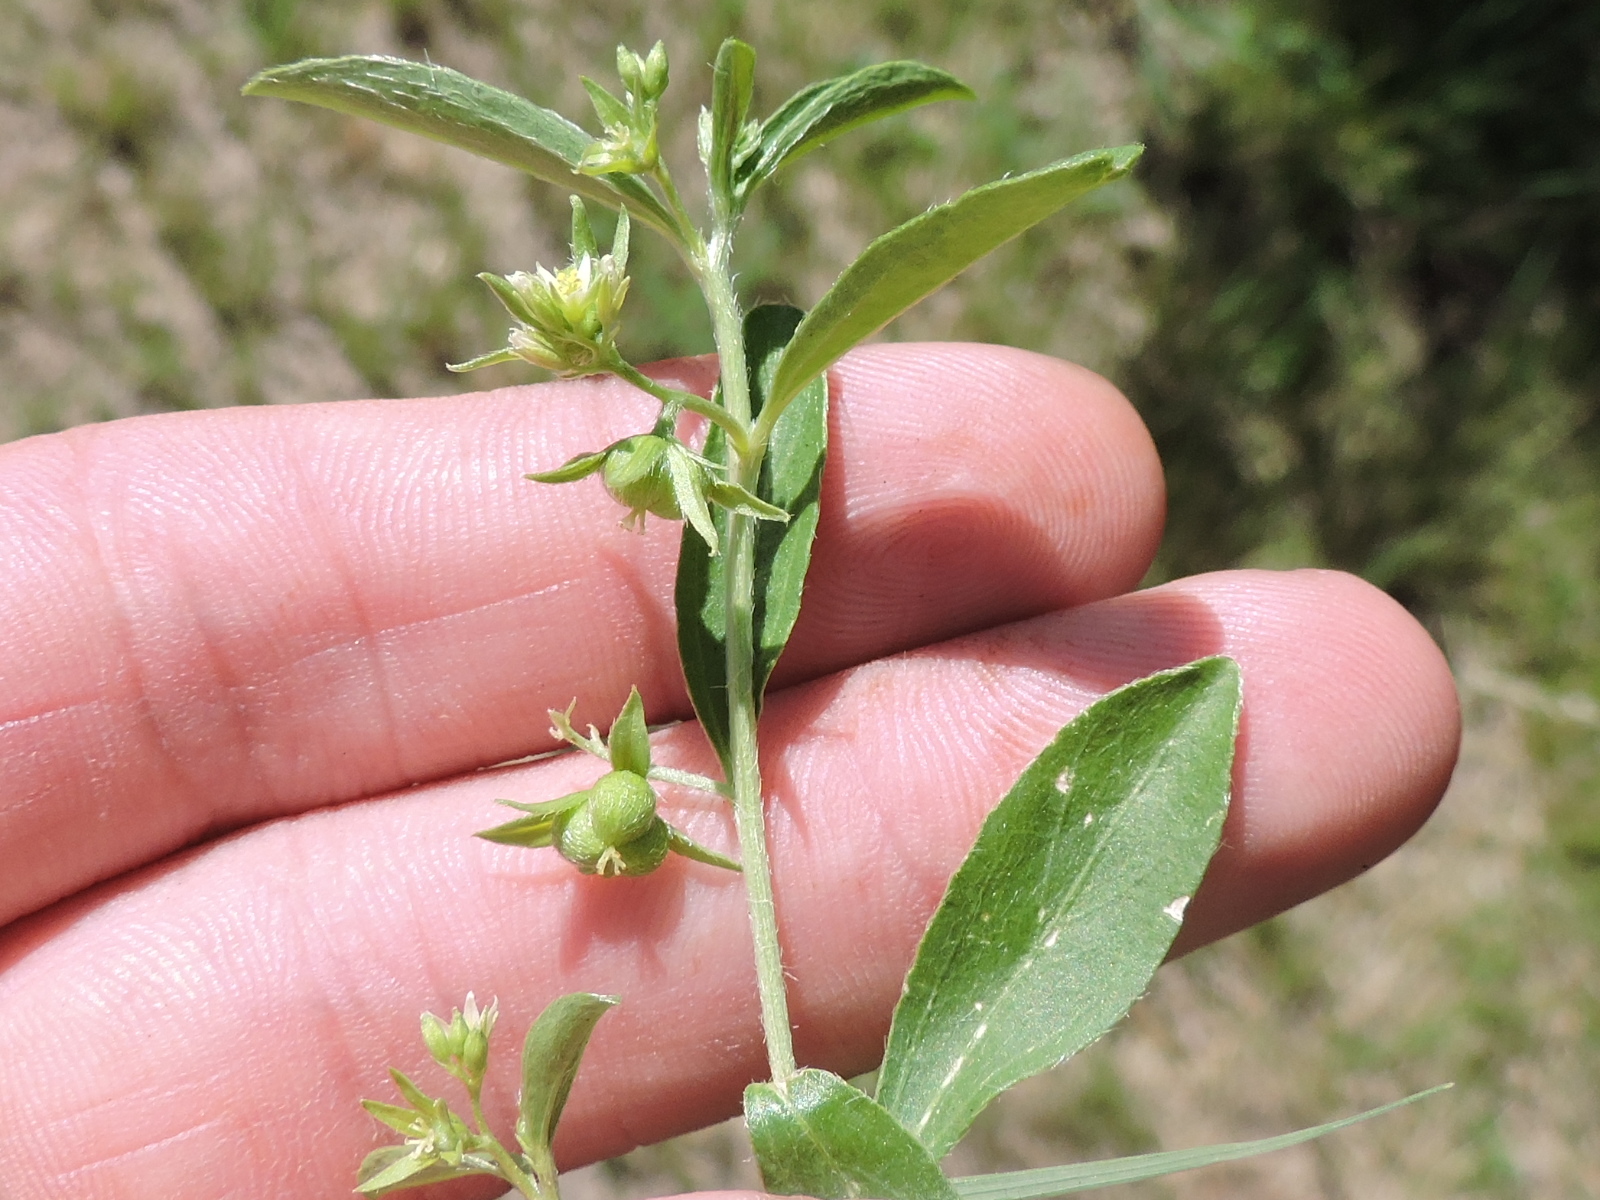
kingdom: Plantae
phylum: Tracheophyta
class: Magnoliopsida
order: Malpighiales
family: Euphorbiaceae
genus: Ditaxis
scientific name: Ditaxis humilis
